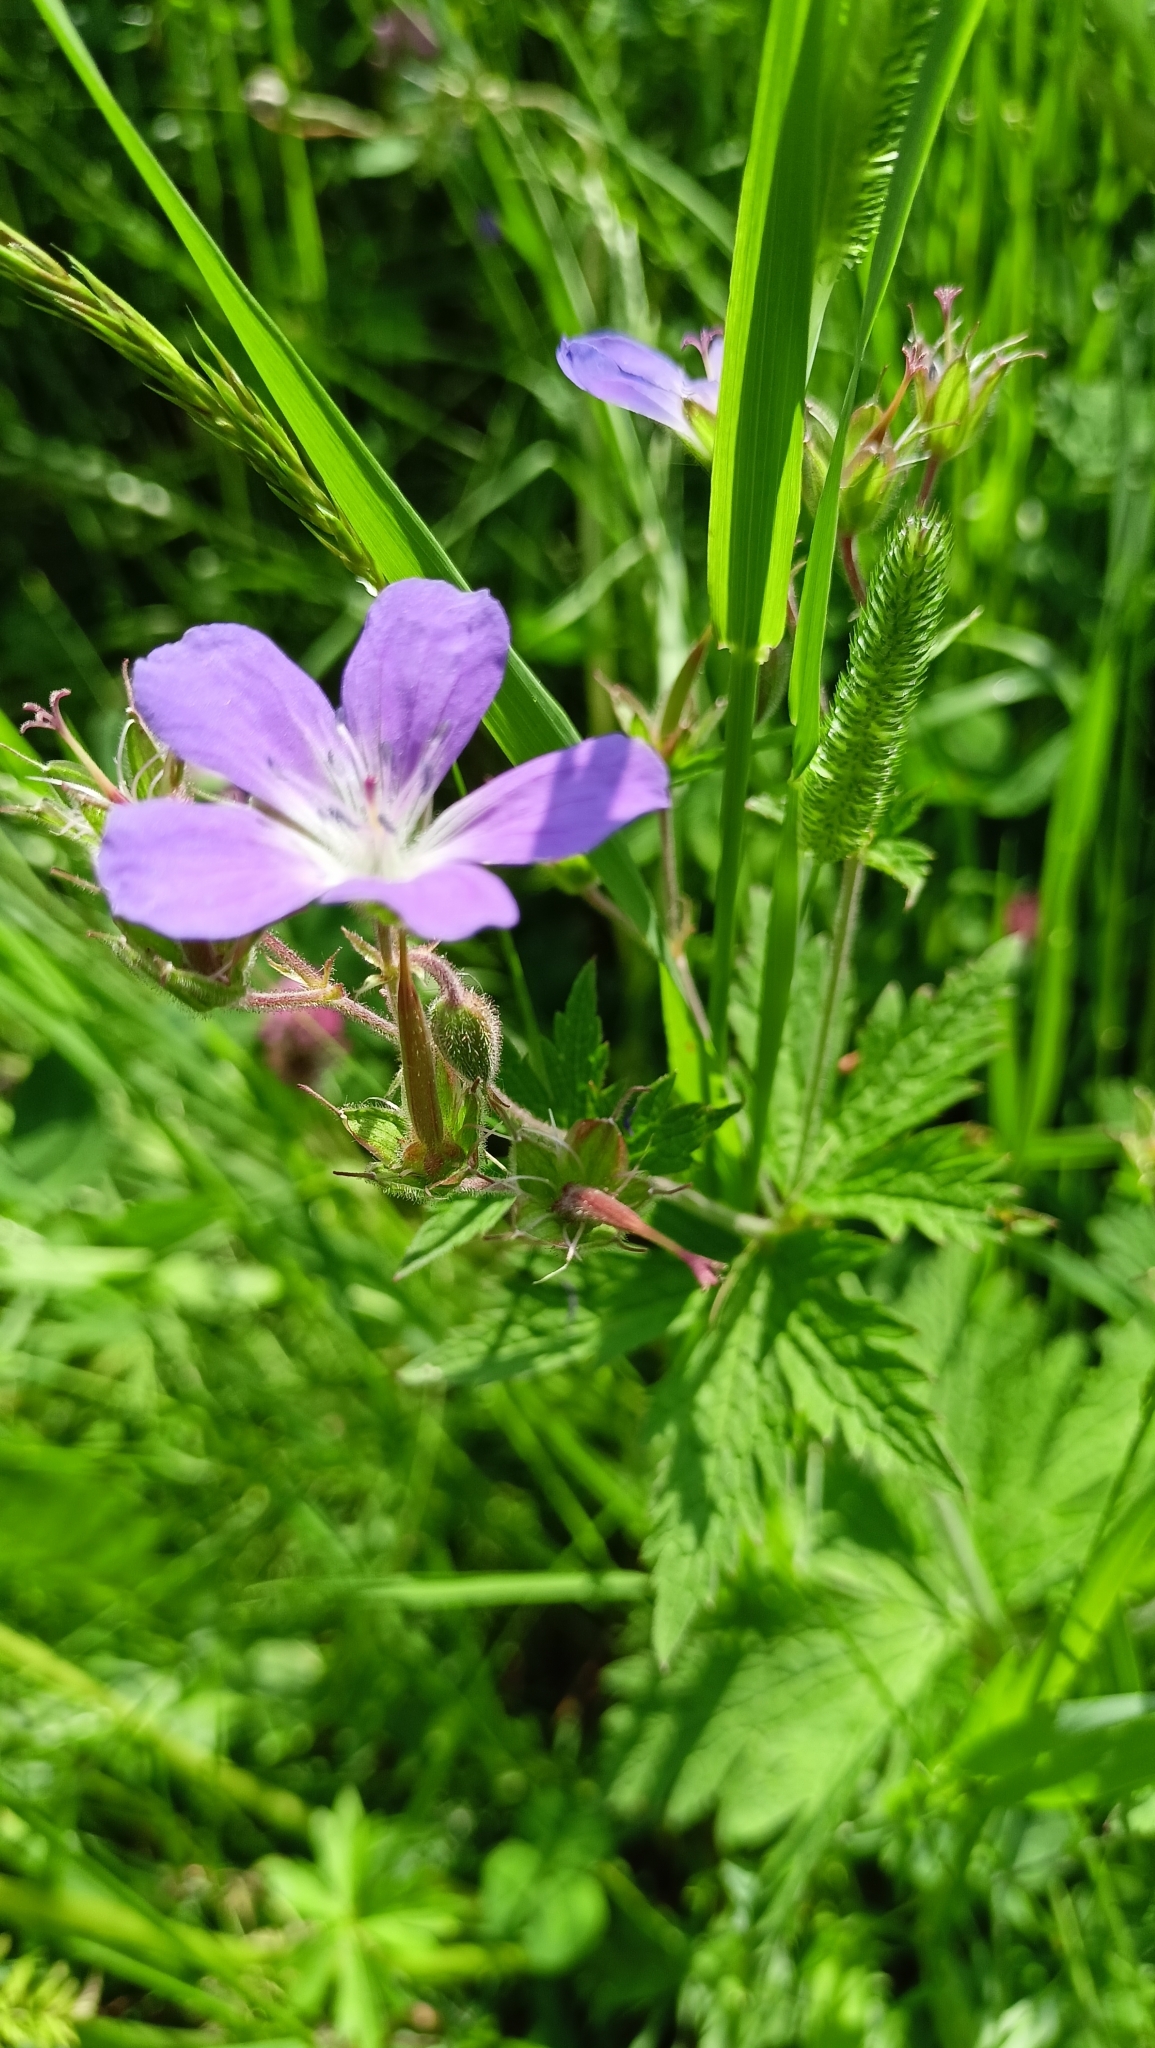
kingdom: Plantae
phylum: Tracheophyta
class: Magnoliopsida
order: Geraniales
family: Geraniaceae
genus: Geranium
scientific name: Geranium sylvaticum
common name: Wood crane's-bill
